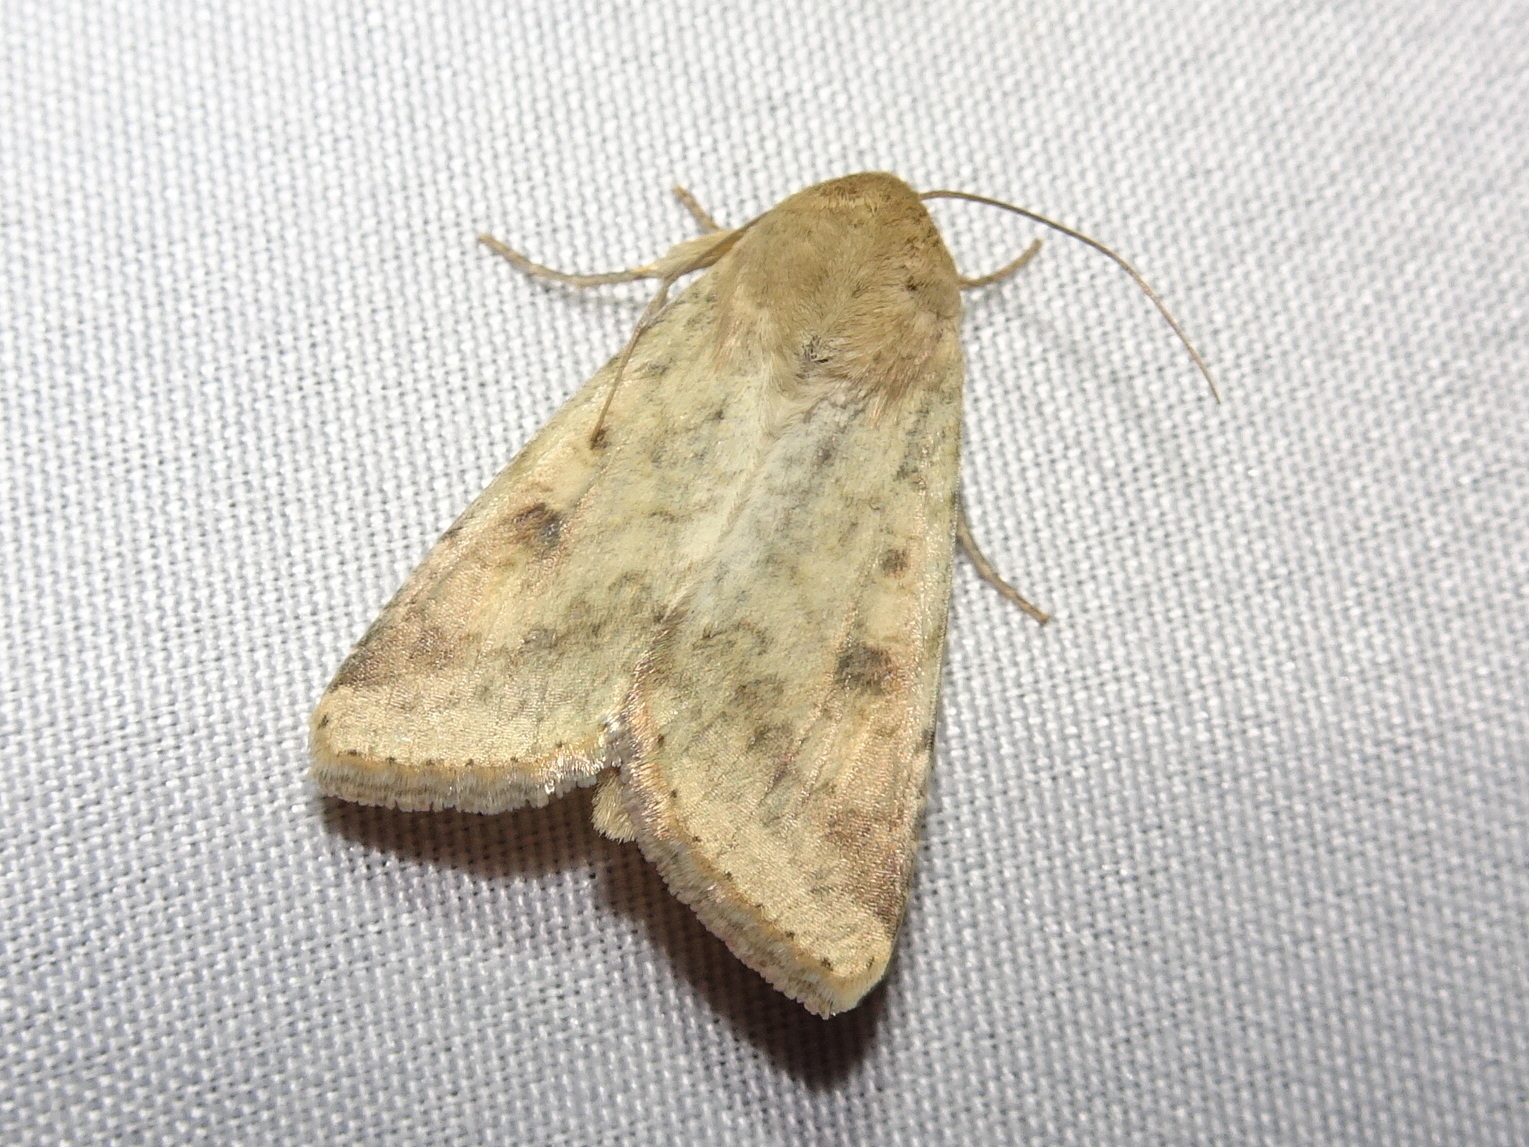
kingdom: Animalia
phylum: Arthropoda
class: Insecta
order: Lepidoptera
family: Noctuidae
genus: Helicoverpa
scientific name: Helicoverpa zea
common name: Bollworm
